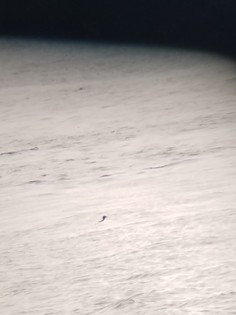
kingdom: Animalia
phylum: Chordata
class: Aves
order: Charadriiformes
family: Alcidae
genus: Uria
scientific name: Uria lomvia
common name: Thick-billed murre
